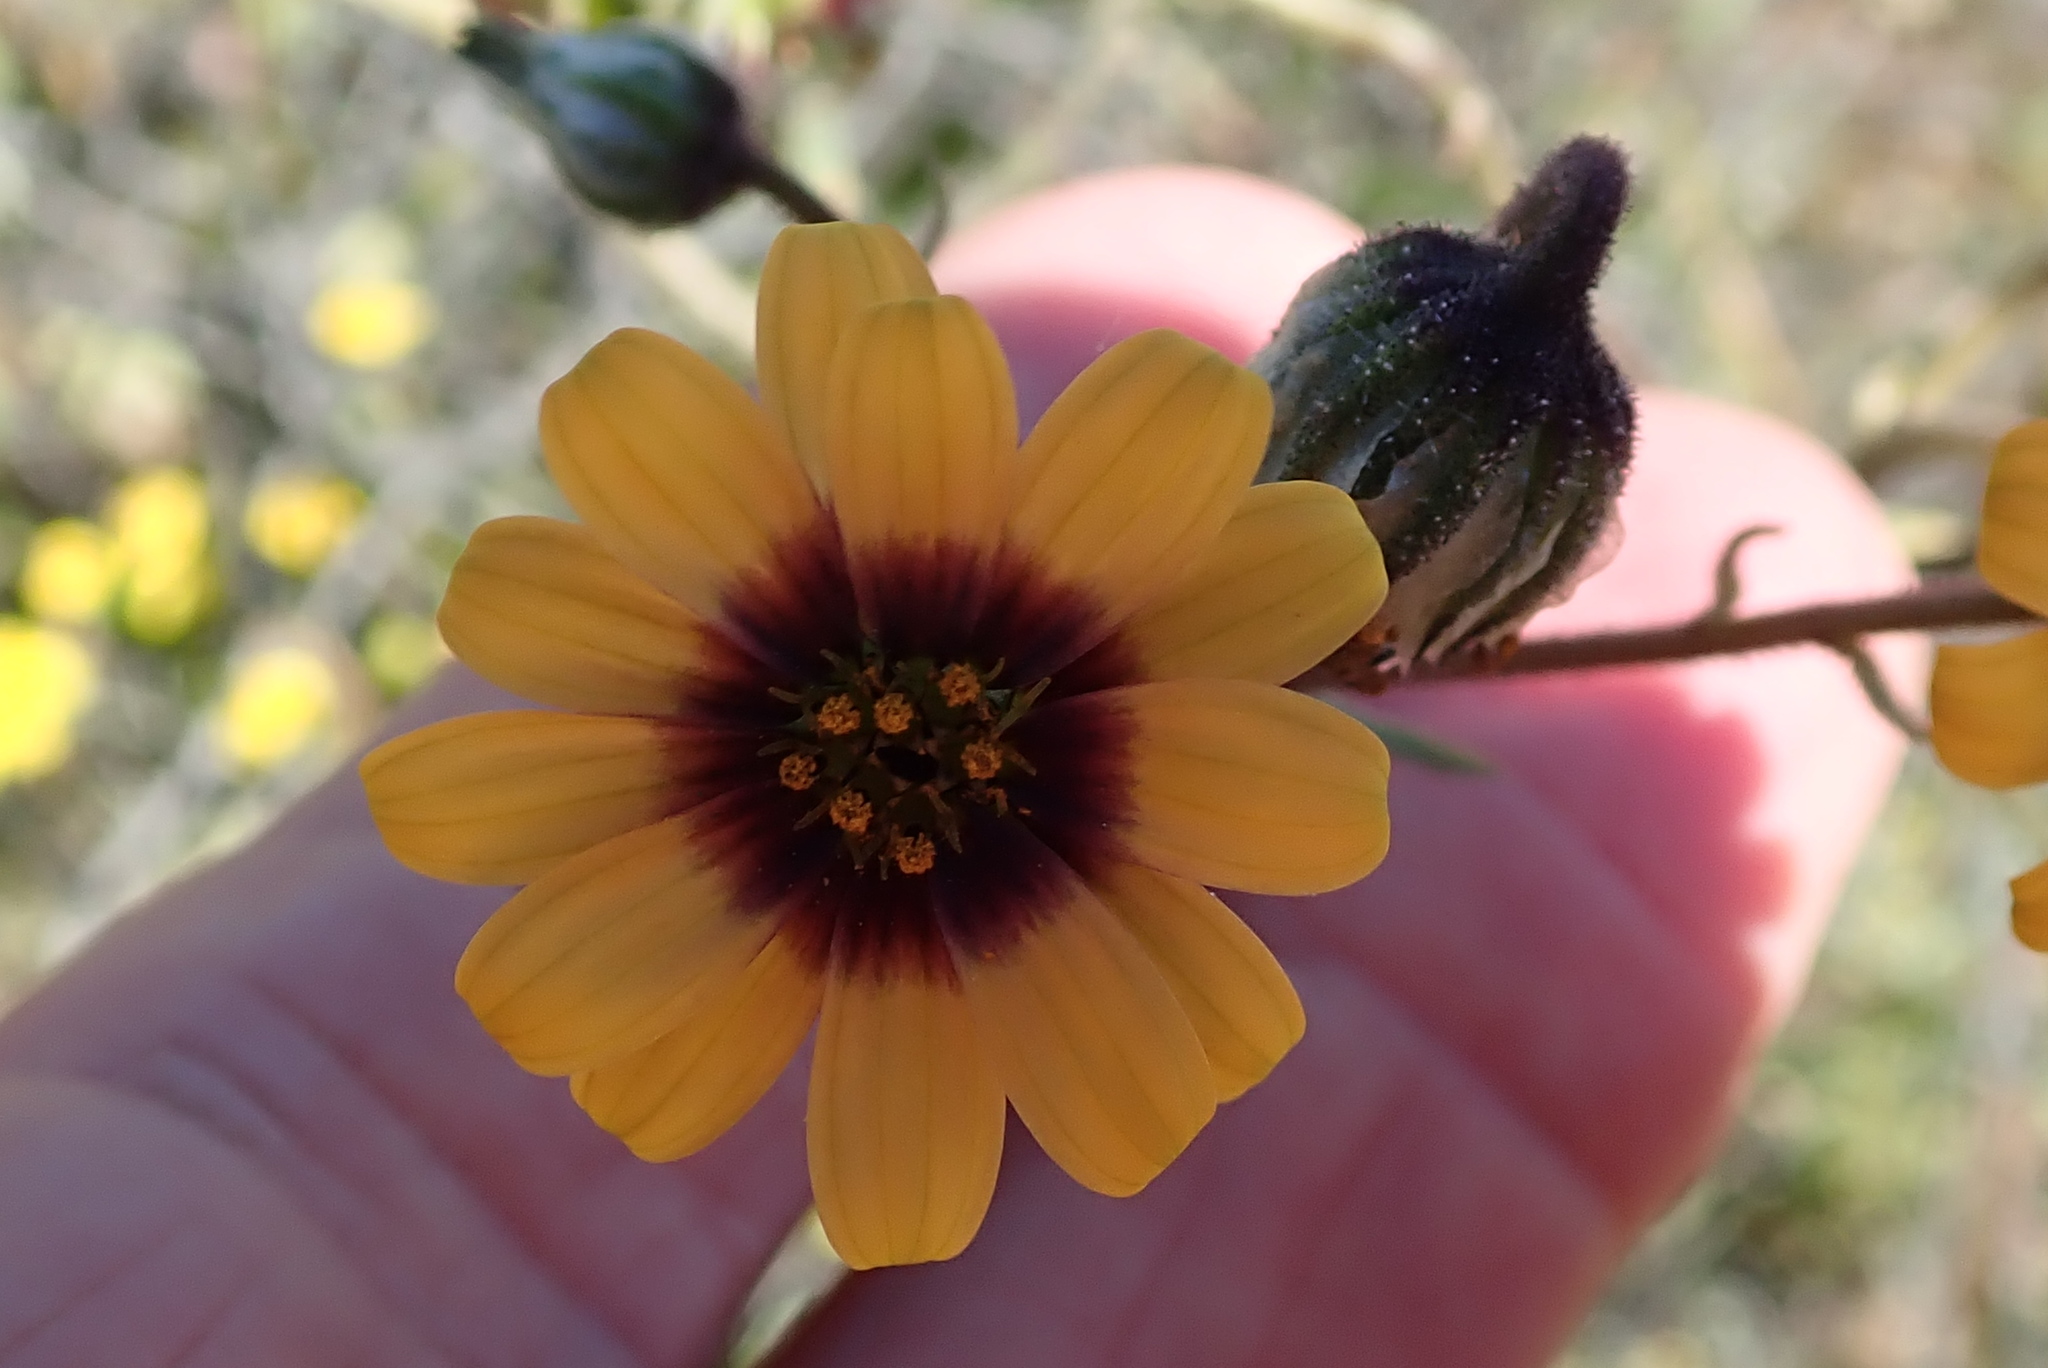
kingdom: Plantae
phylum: Tracheophyta
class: Magnoliopsida
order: Asterales
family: Asteraceae
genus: Osteospermum
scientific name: Osteospermum monstrosum
